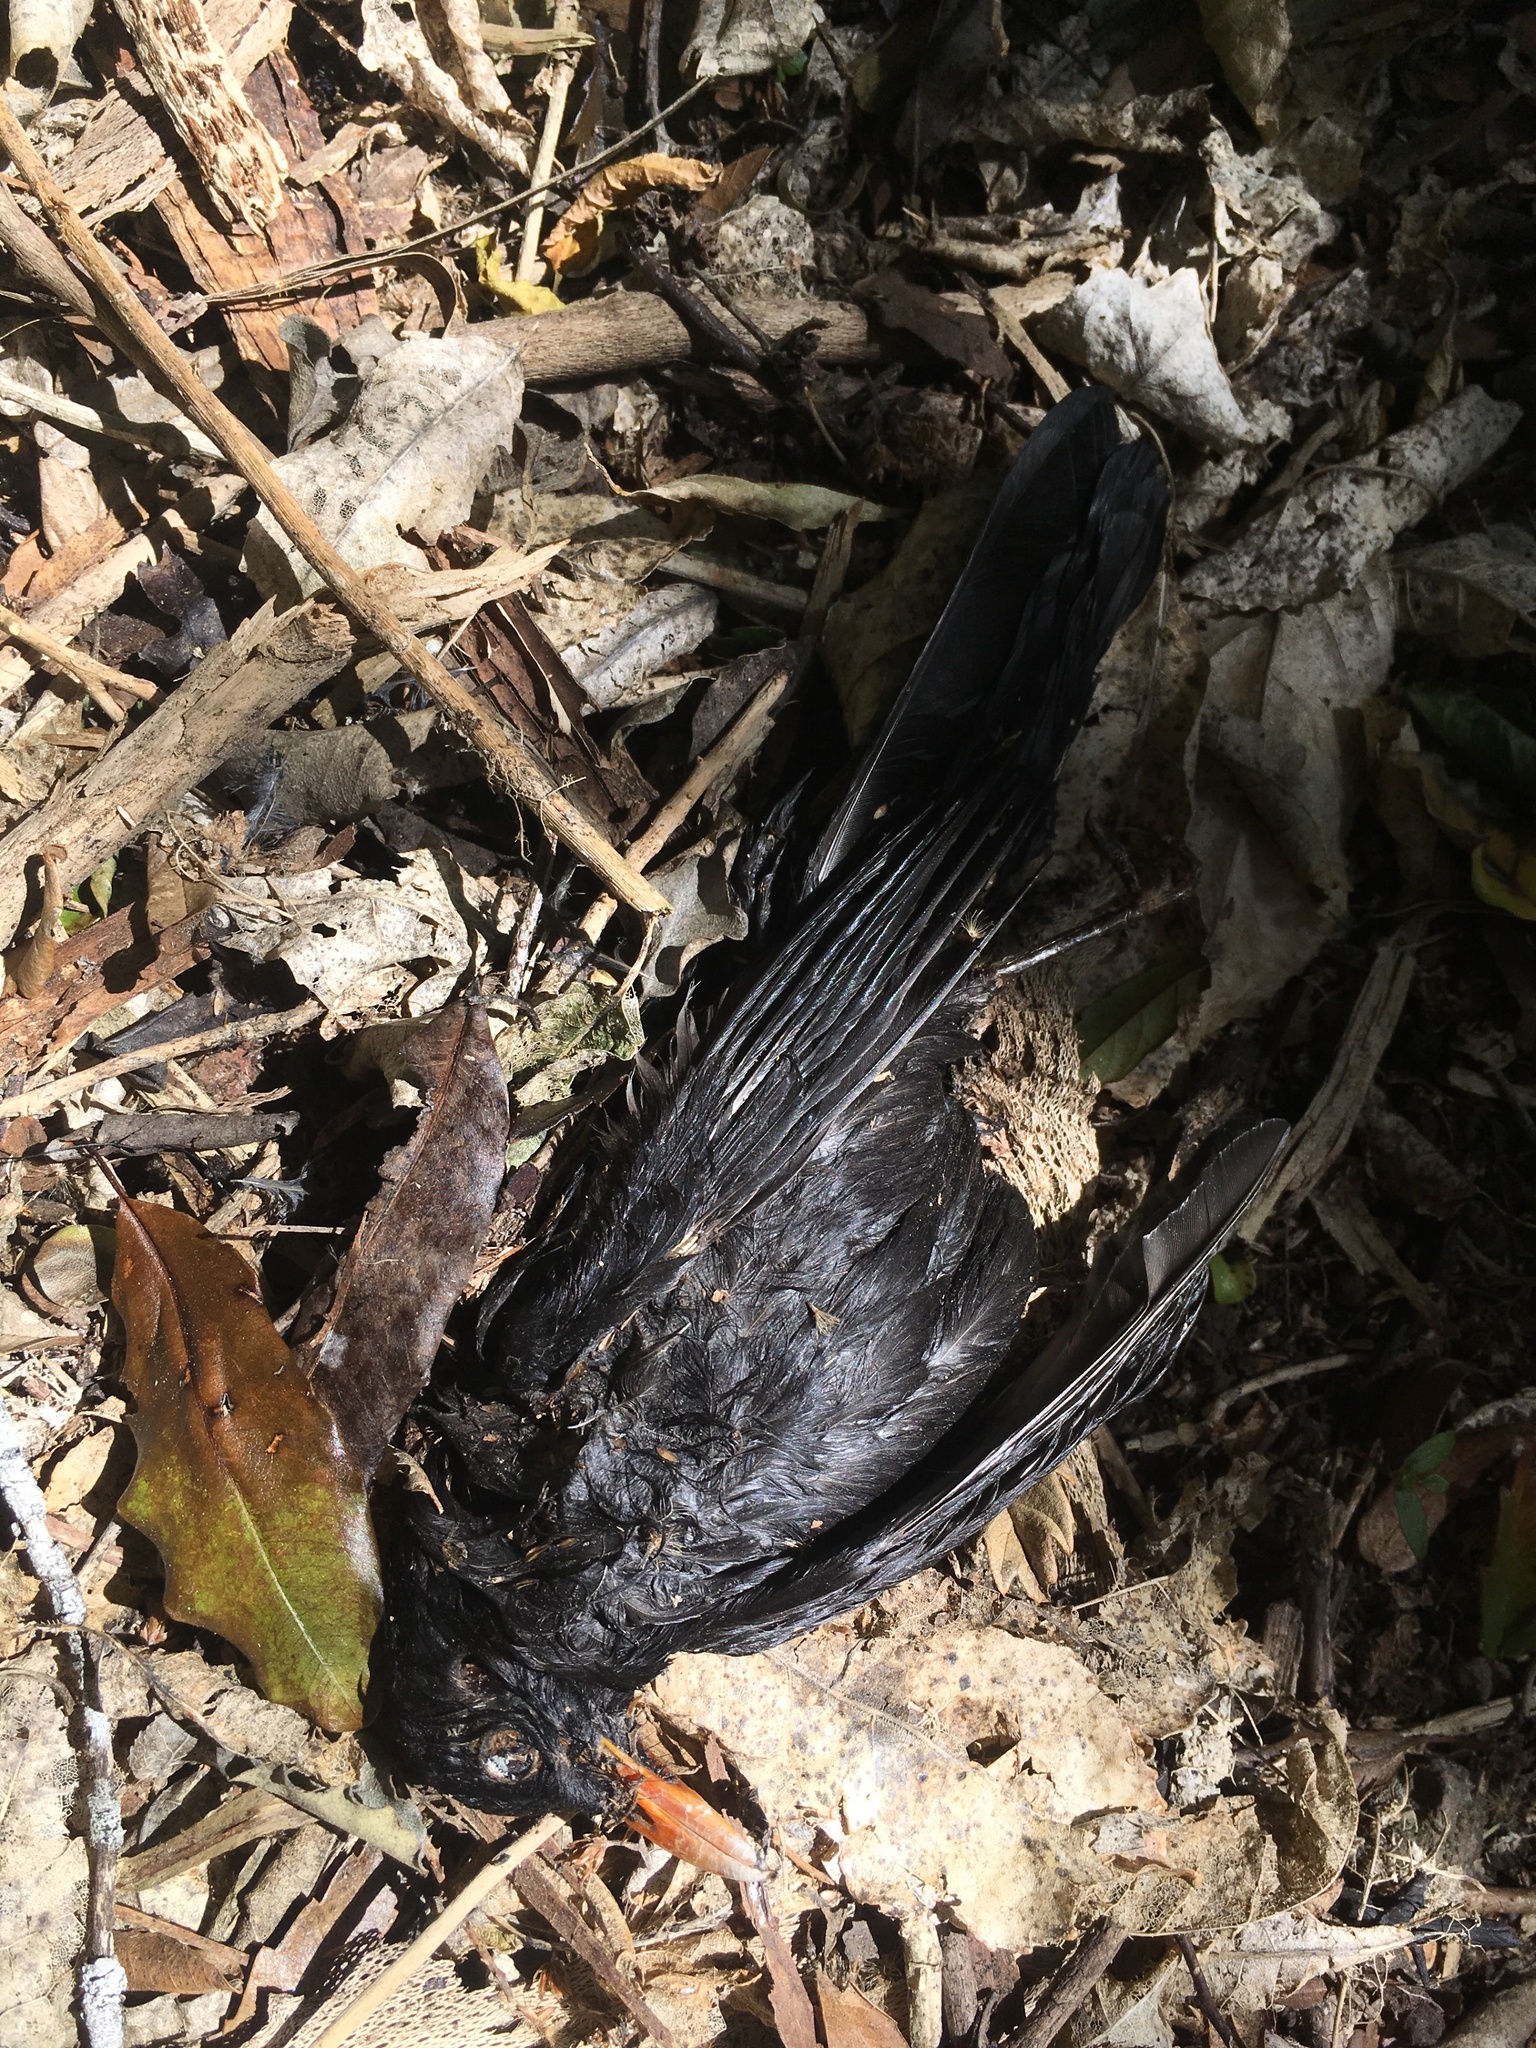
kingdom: Animalia
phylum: Chordata
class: Aves
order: Passeriformes
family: Turdidae
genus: Turdus
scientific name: Turdus merula
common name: Common blackbird
